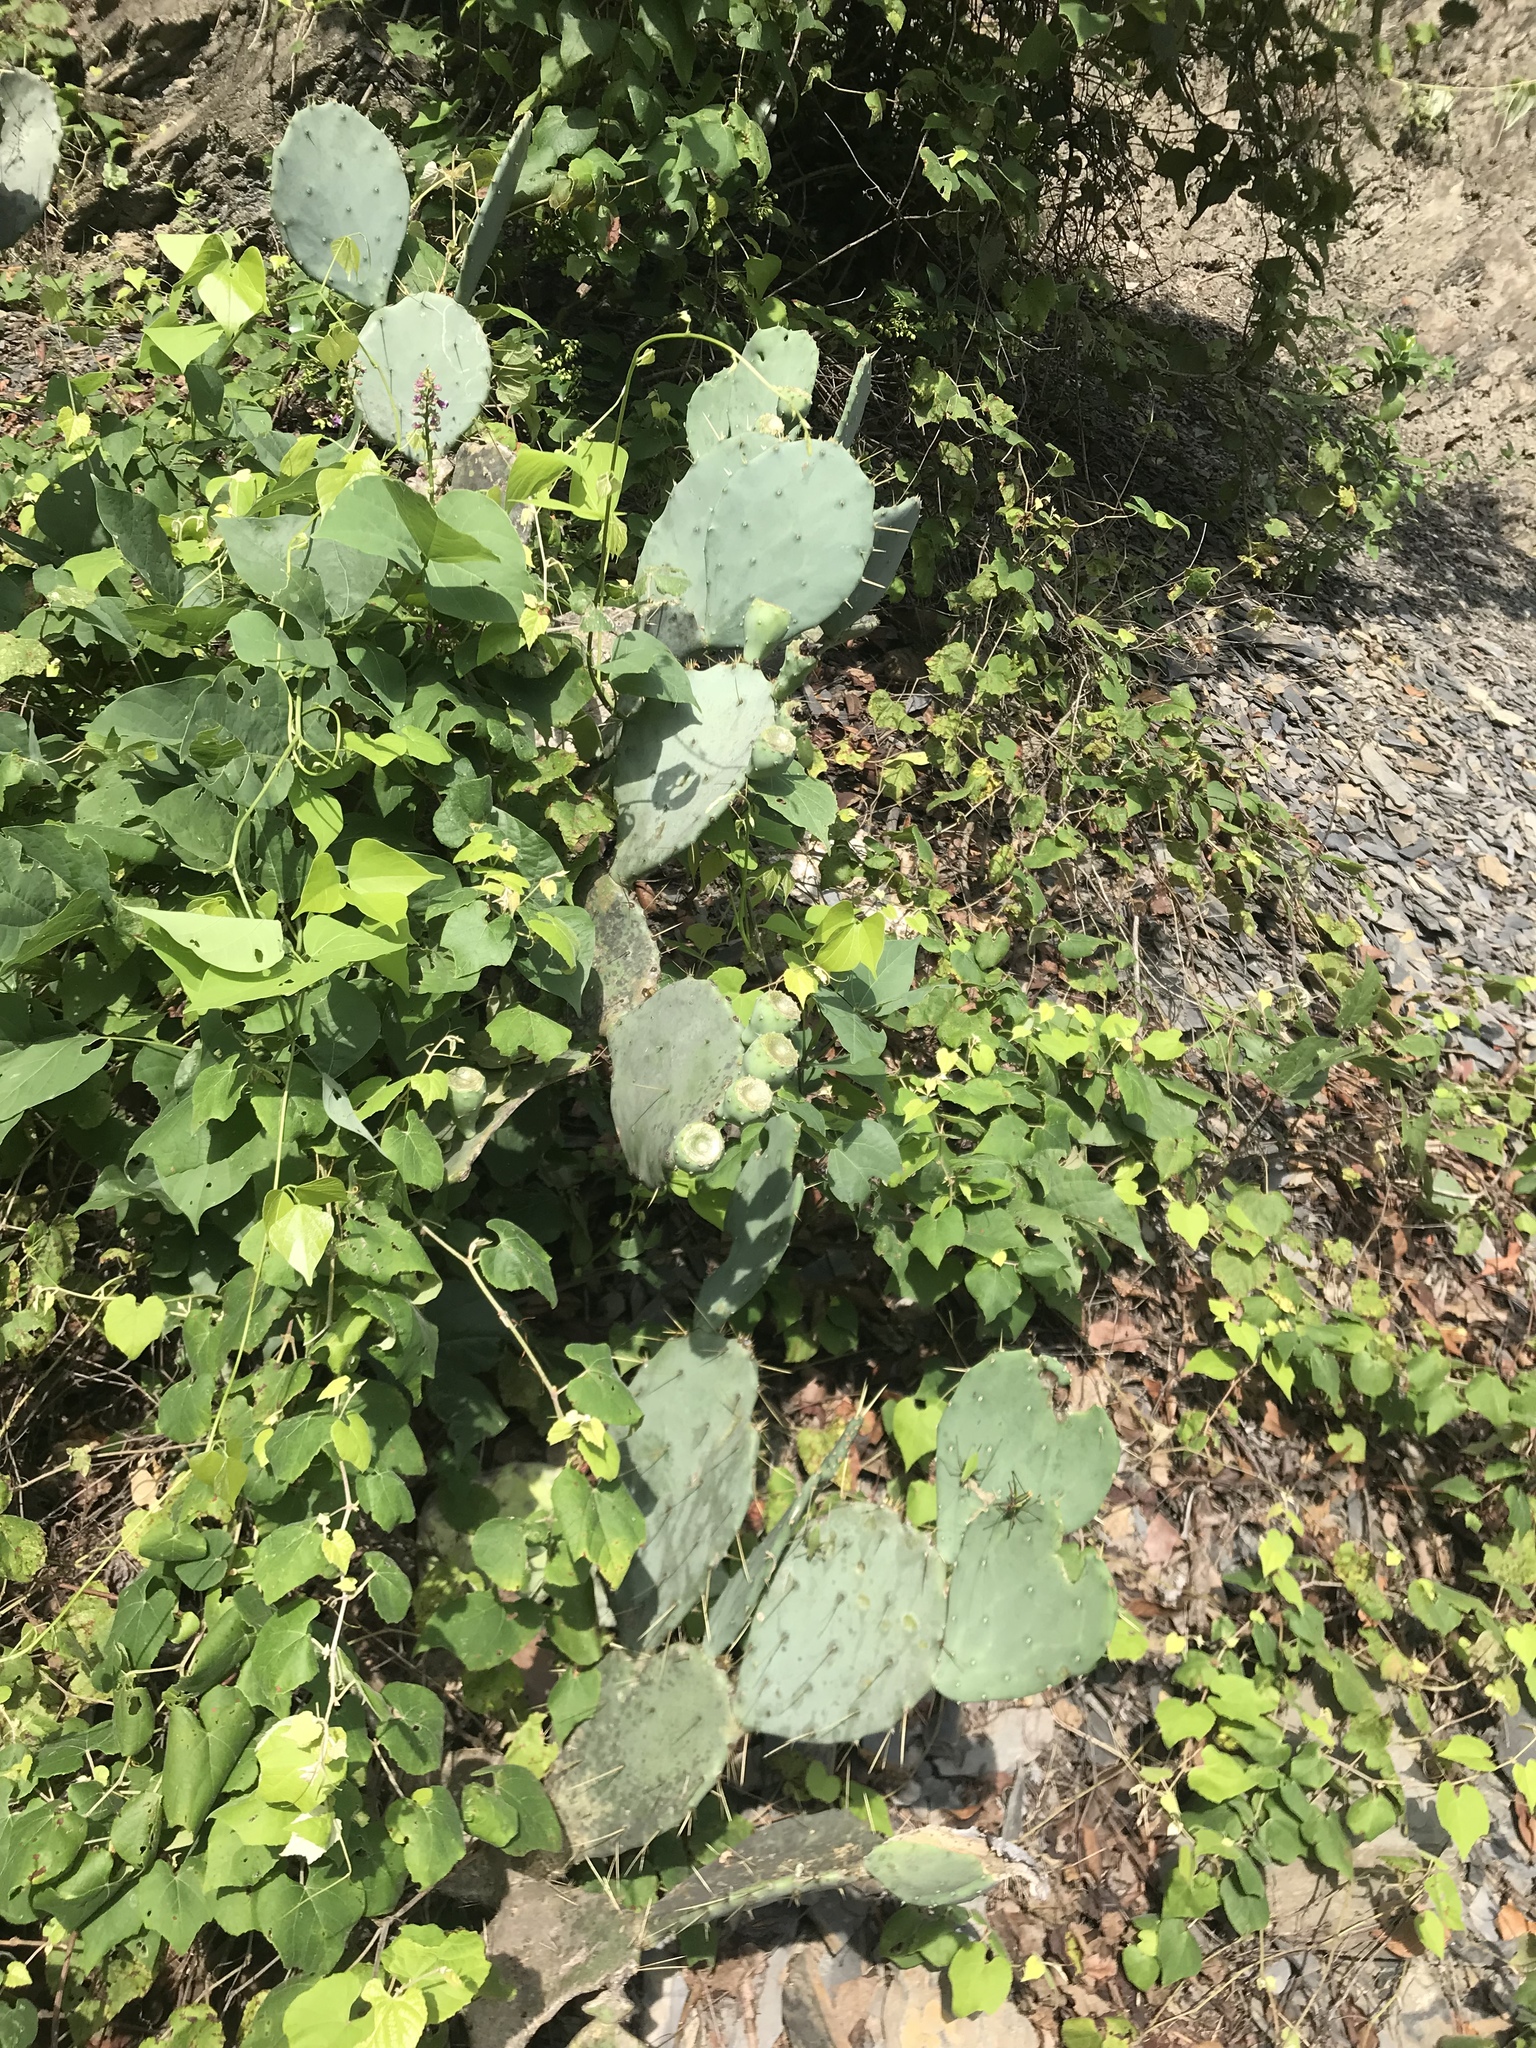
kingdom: Plantae
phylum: Tracheophyta
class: Magnoliopsida
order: Caryophyllales
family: Cactaceae
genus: Opuntia
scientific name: Opuntia engelmannii
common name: Cactus-apple
